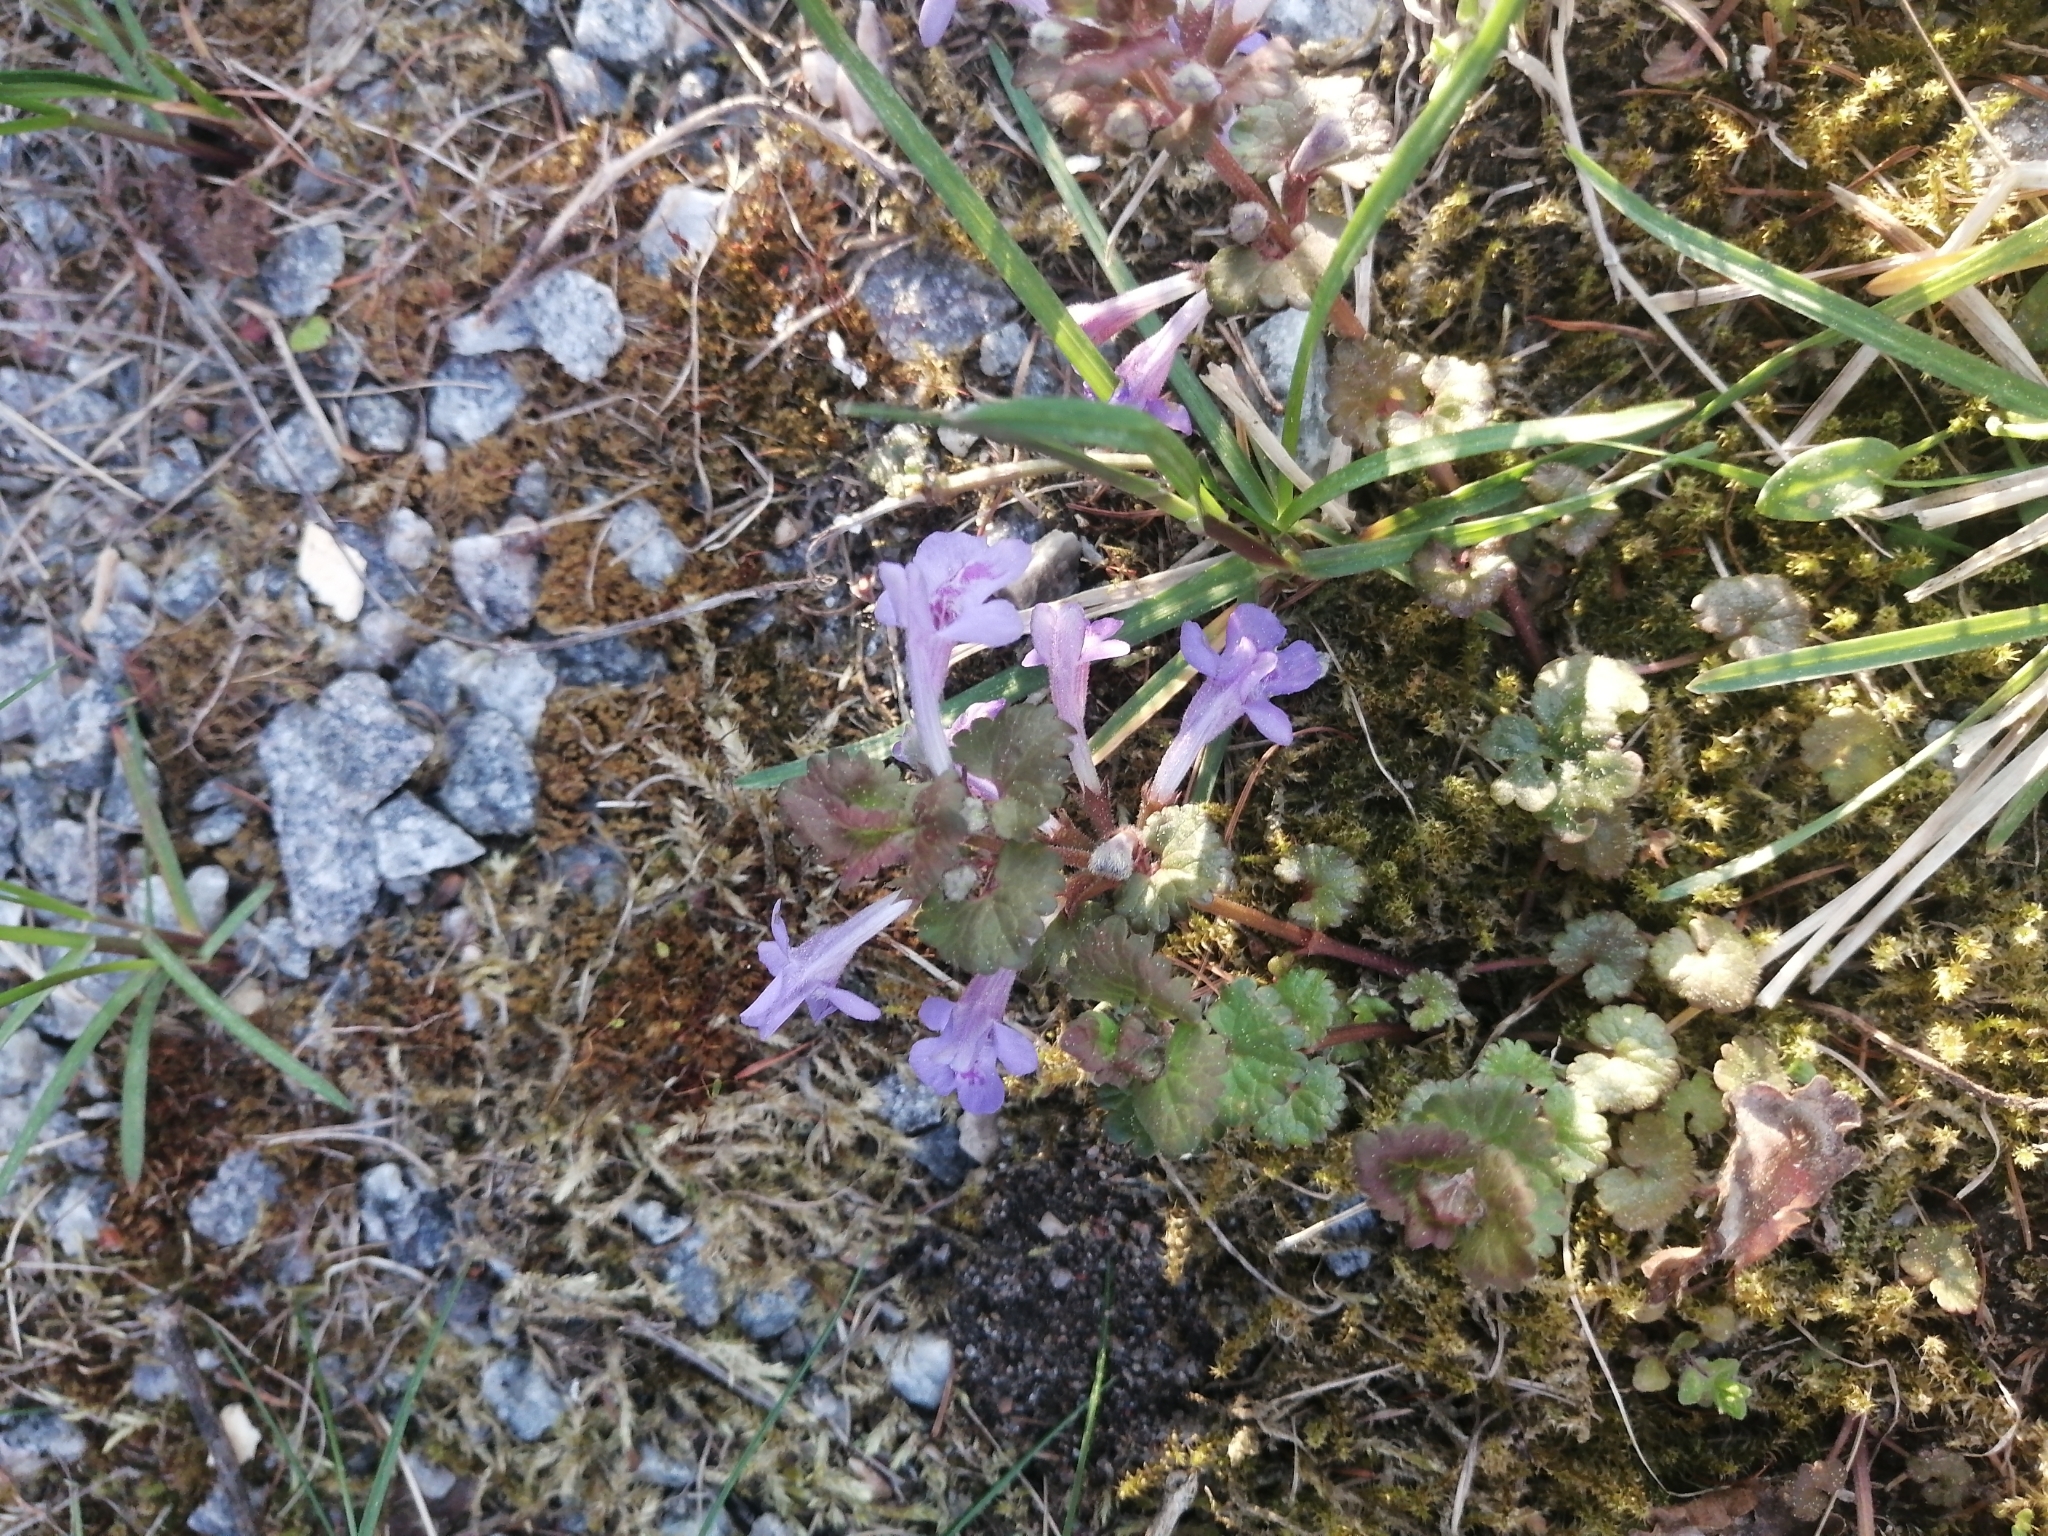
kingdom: Plantae
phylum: Tracheophyta
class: Magnoliopsida
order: Lamiales
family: Lamiaceae
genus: Glechoma
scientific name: Glechoma hederacea
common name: Ground ivy
